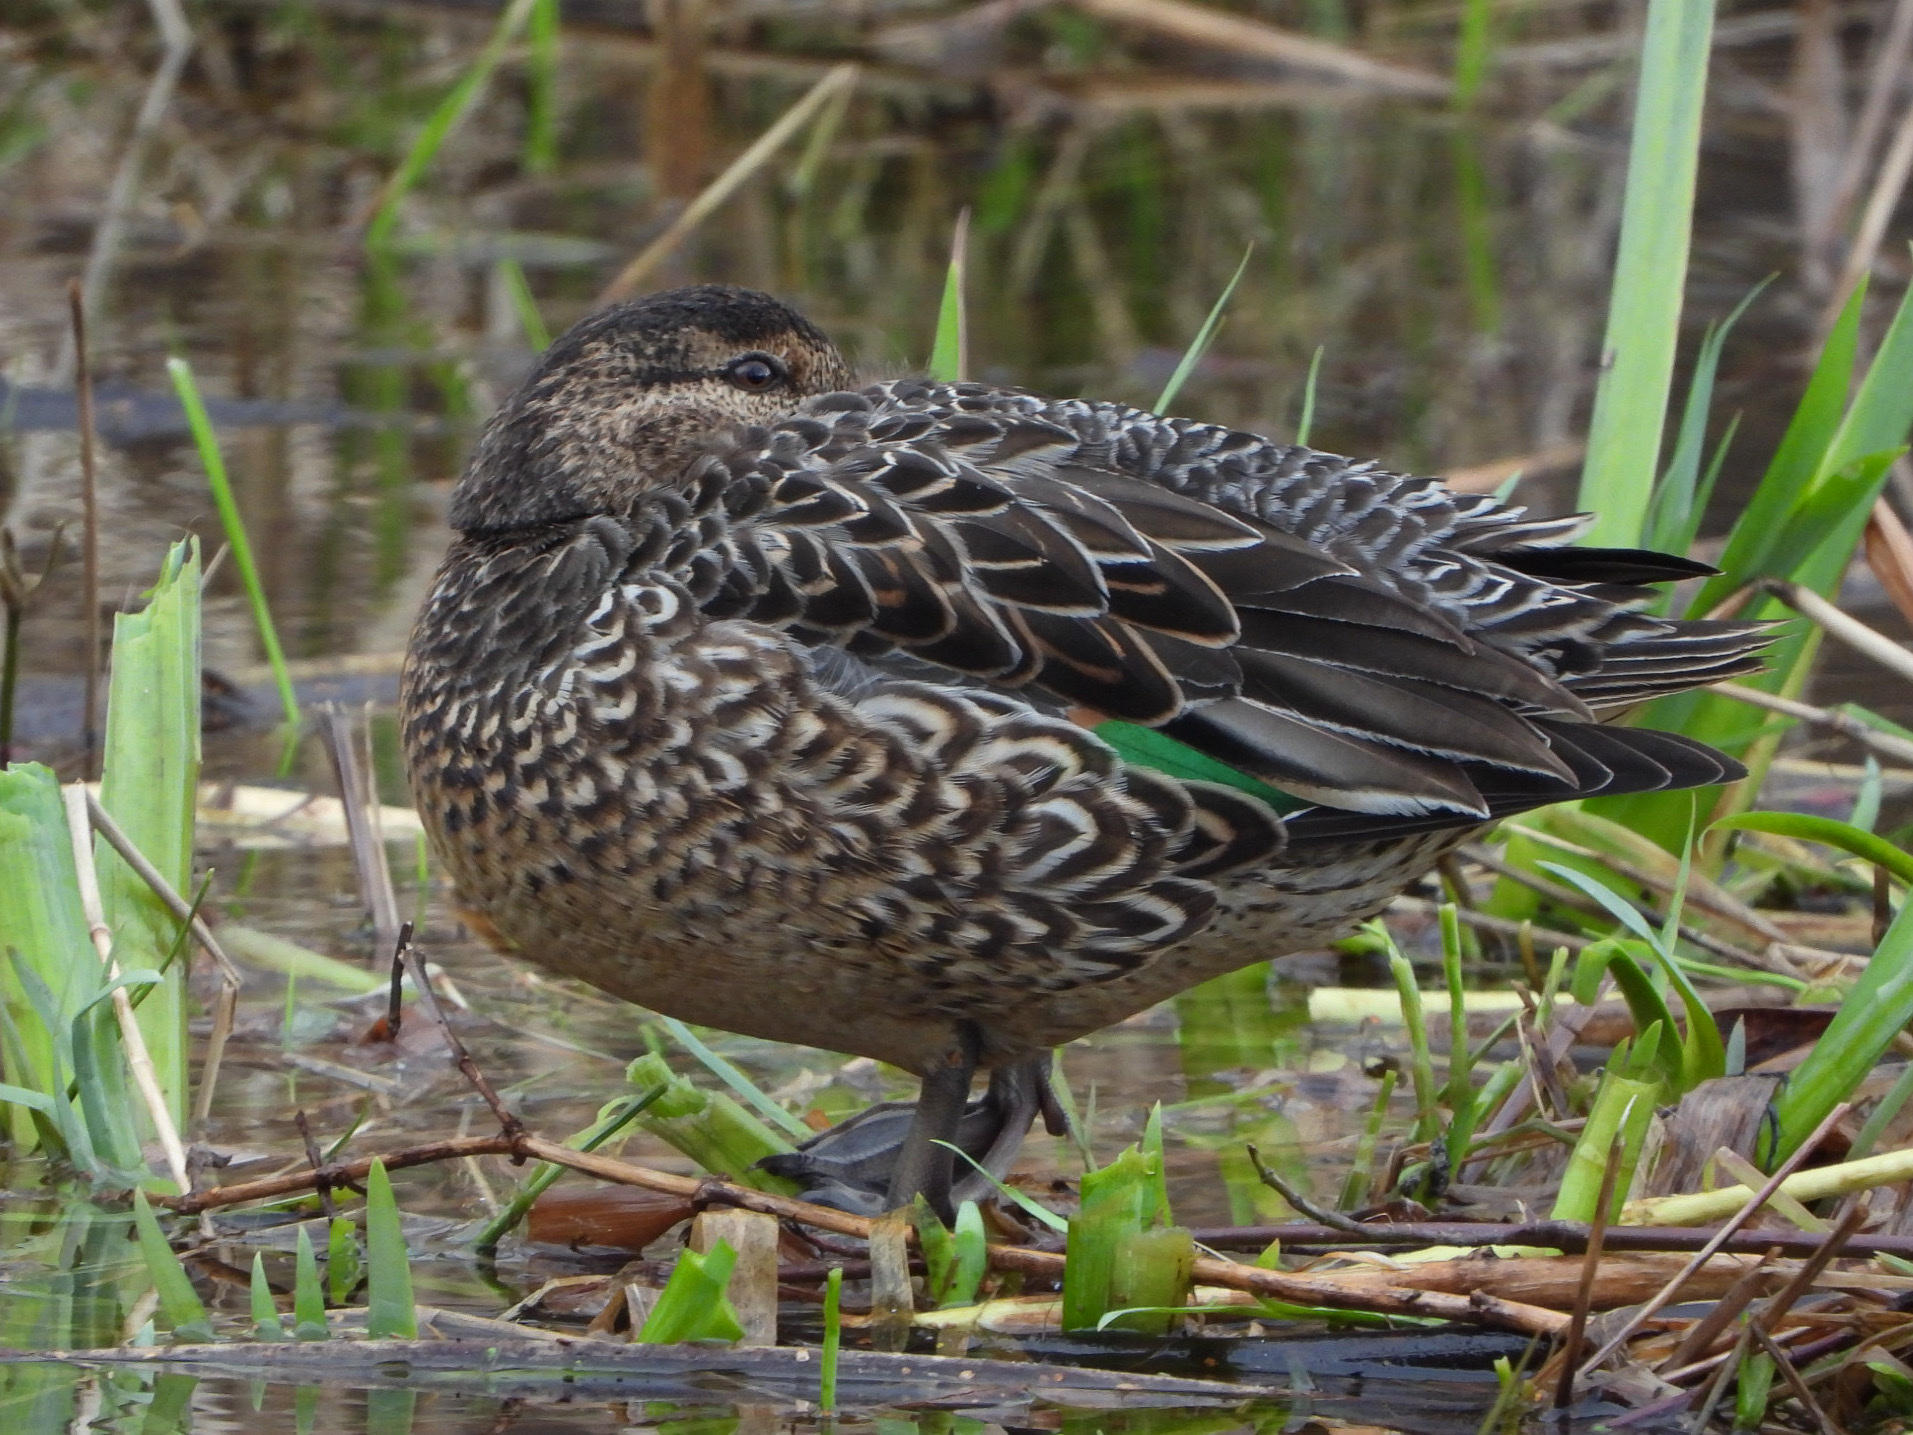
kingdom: Animalia
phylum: Chordata
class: Aves
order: Anseriformes
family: Anatidae
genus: Anas
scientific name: Anas crecca
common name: Eurasian teal
